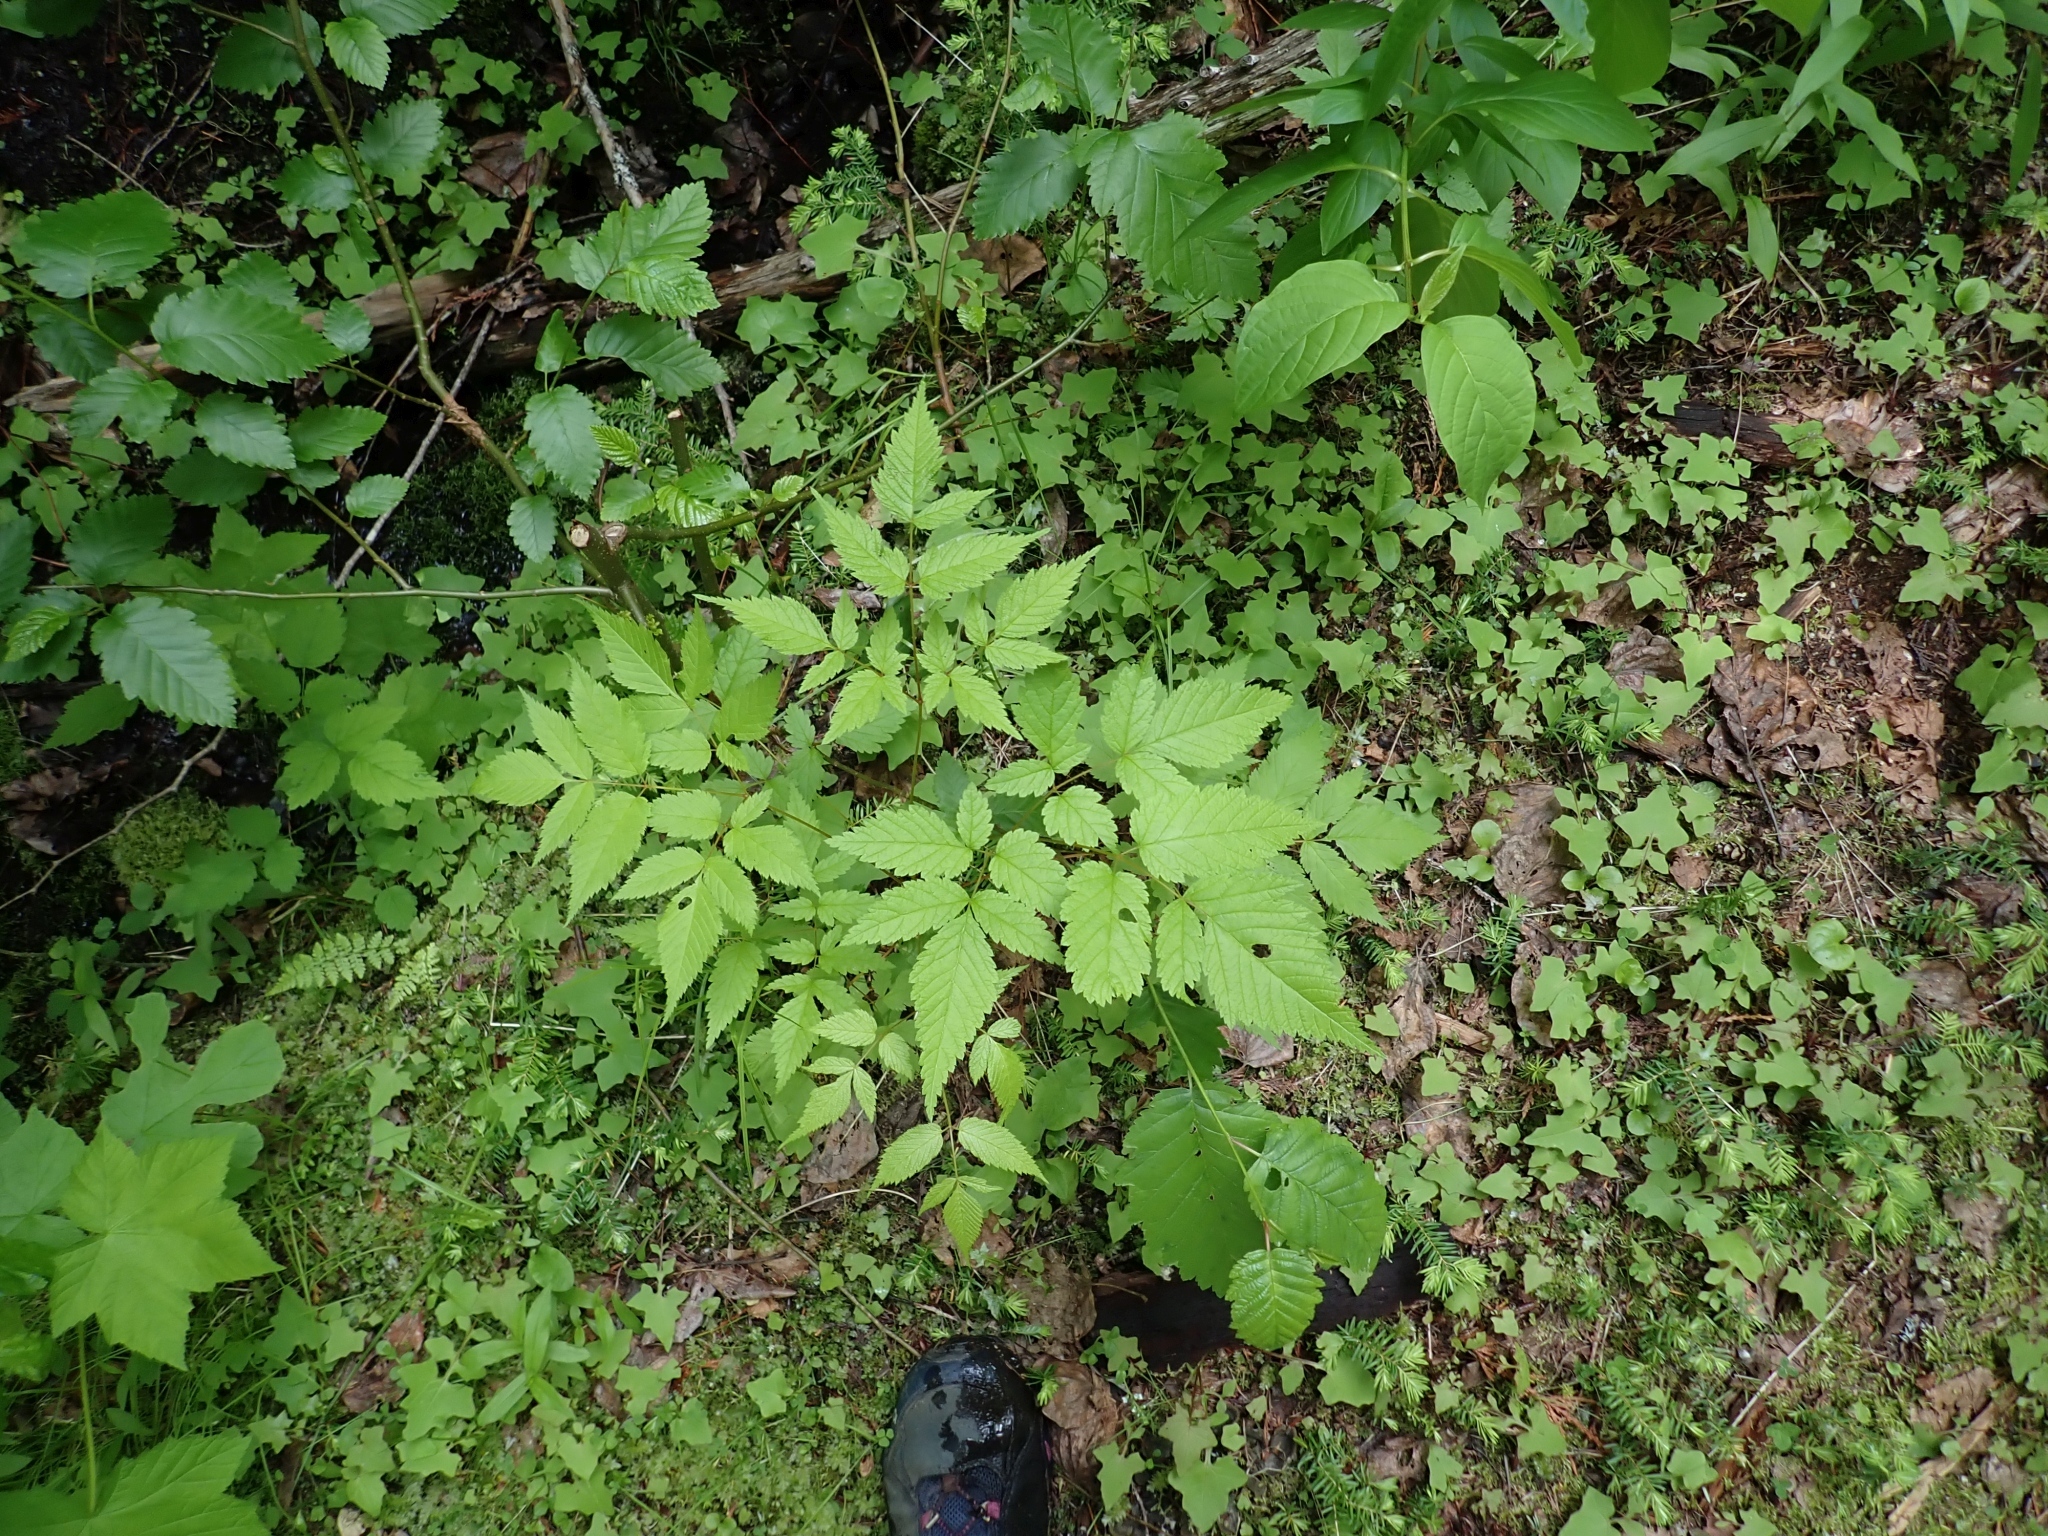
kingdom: Plantae
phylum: Tracheophyta
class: Magnoliopsida
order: Rosales
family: Rosaceae
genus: Aruncus
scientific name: Aruncus dioicus
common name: Buck's-beard
